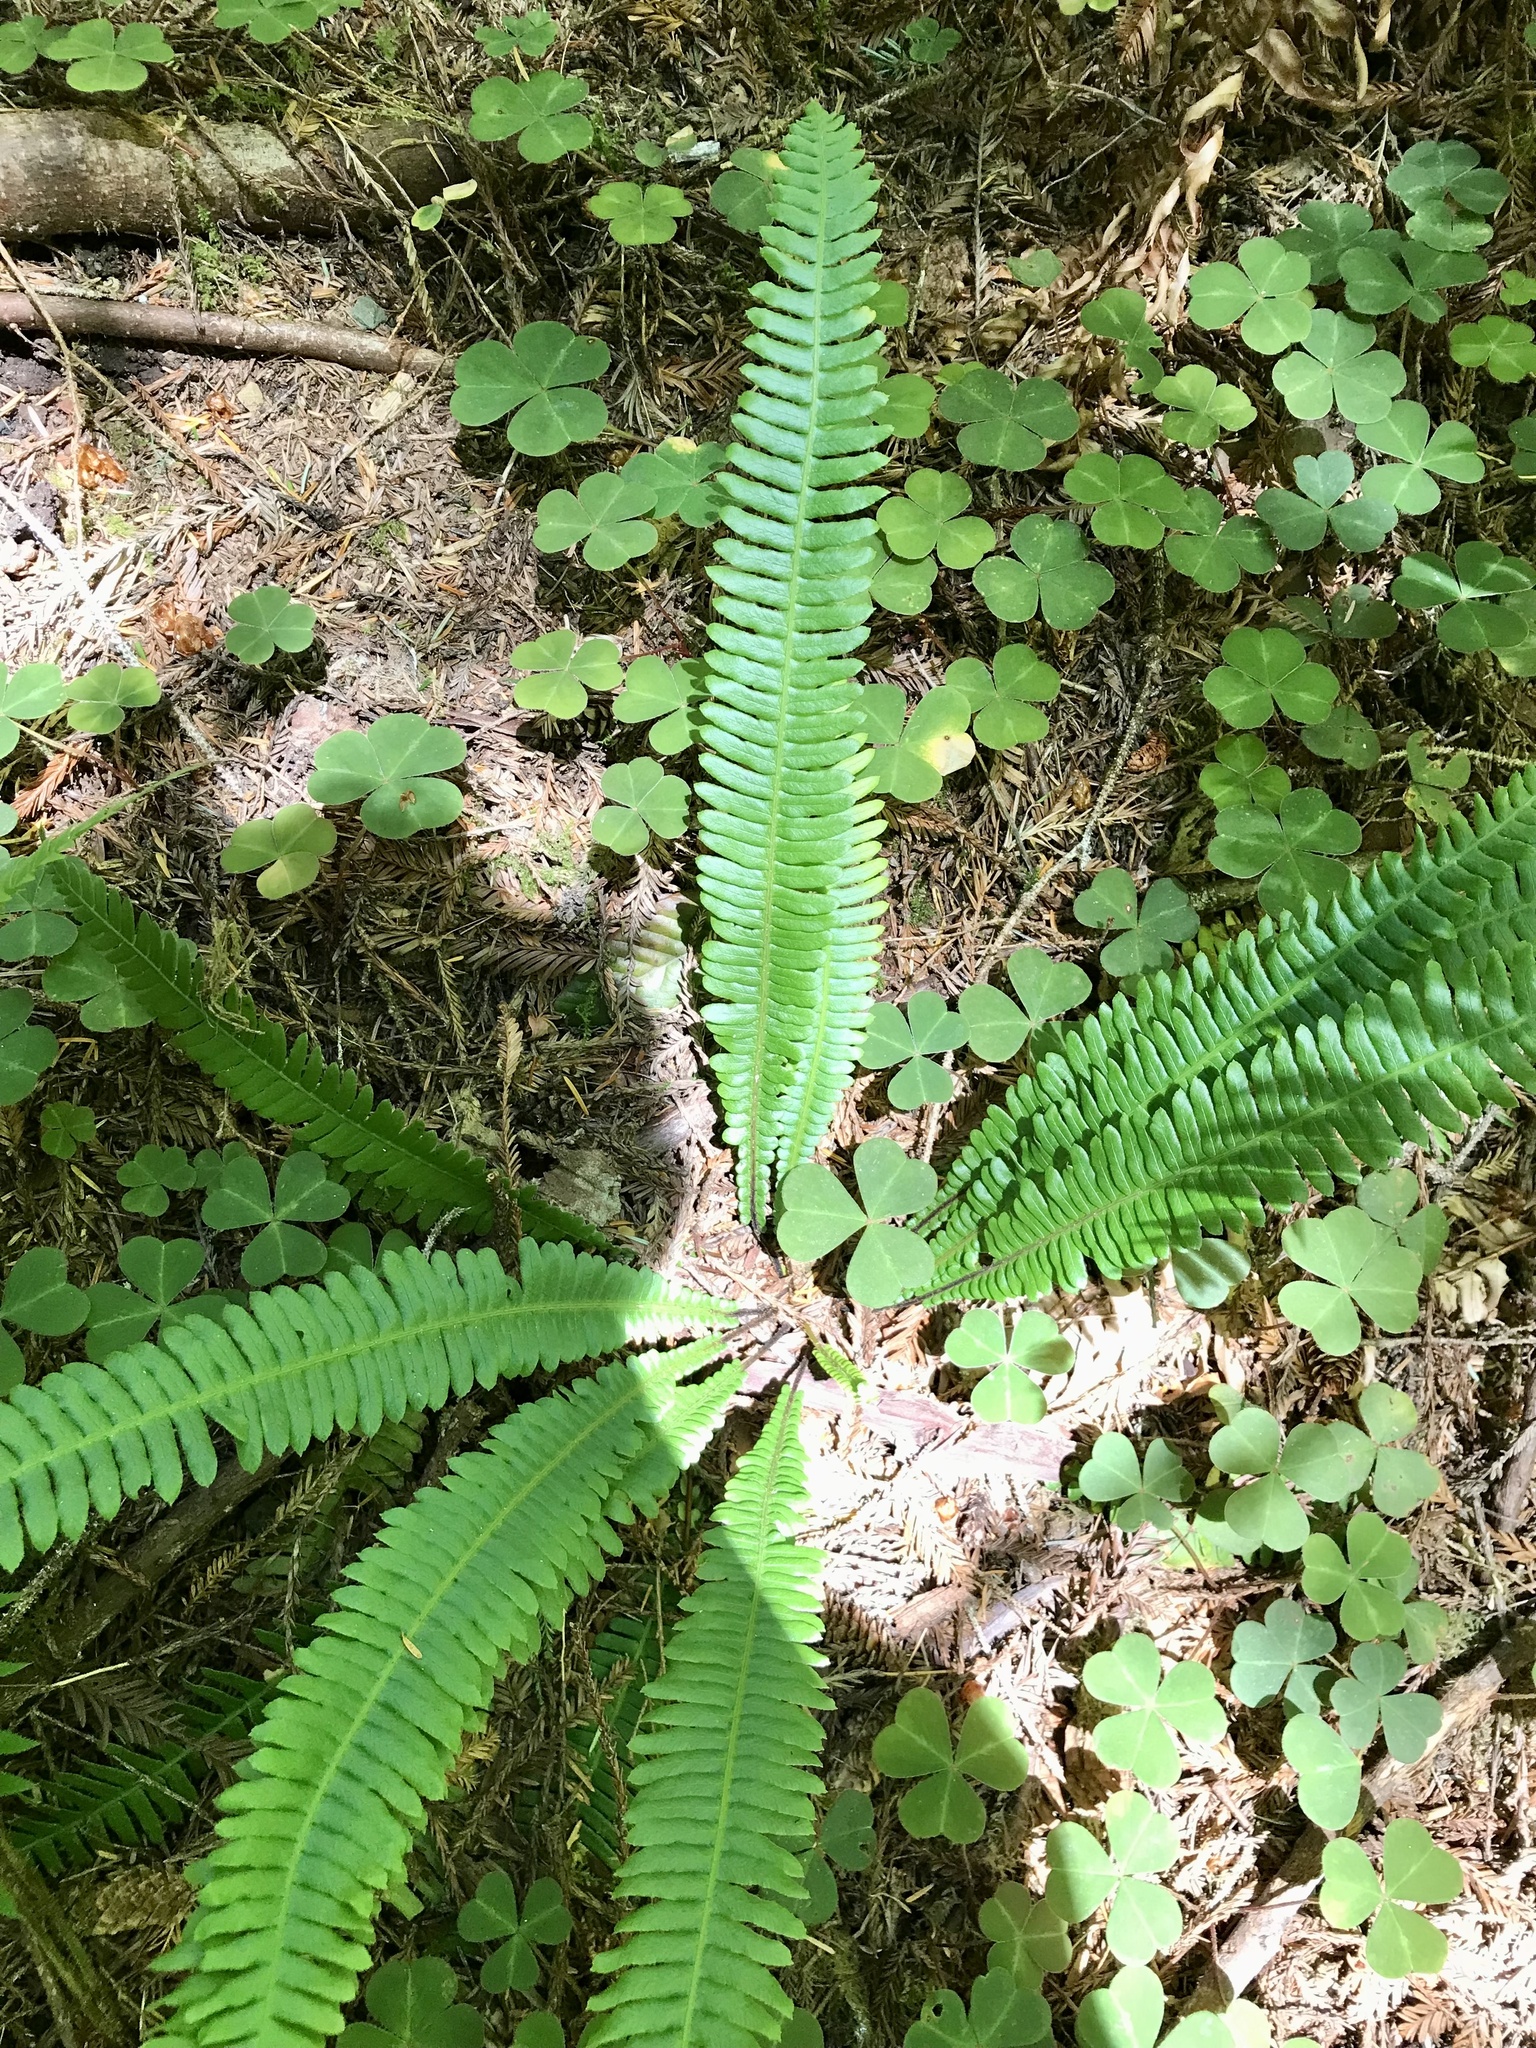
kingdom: Plantae
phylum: Tracheophyta
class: Polypodiopsida
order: Polypodiales
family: Blechnaceae
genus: Struthiopteris
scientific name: Struthiopteris spicant
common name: Deer fern
